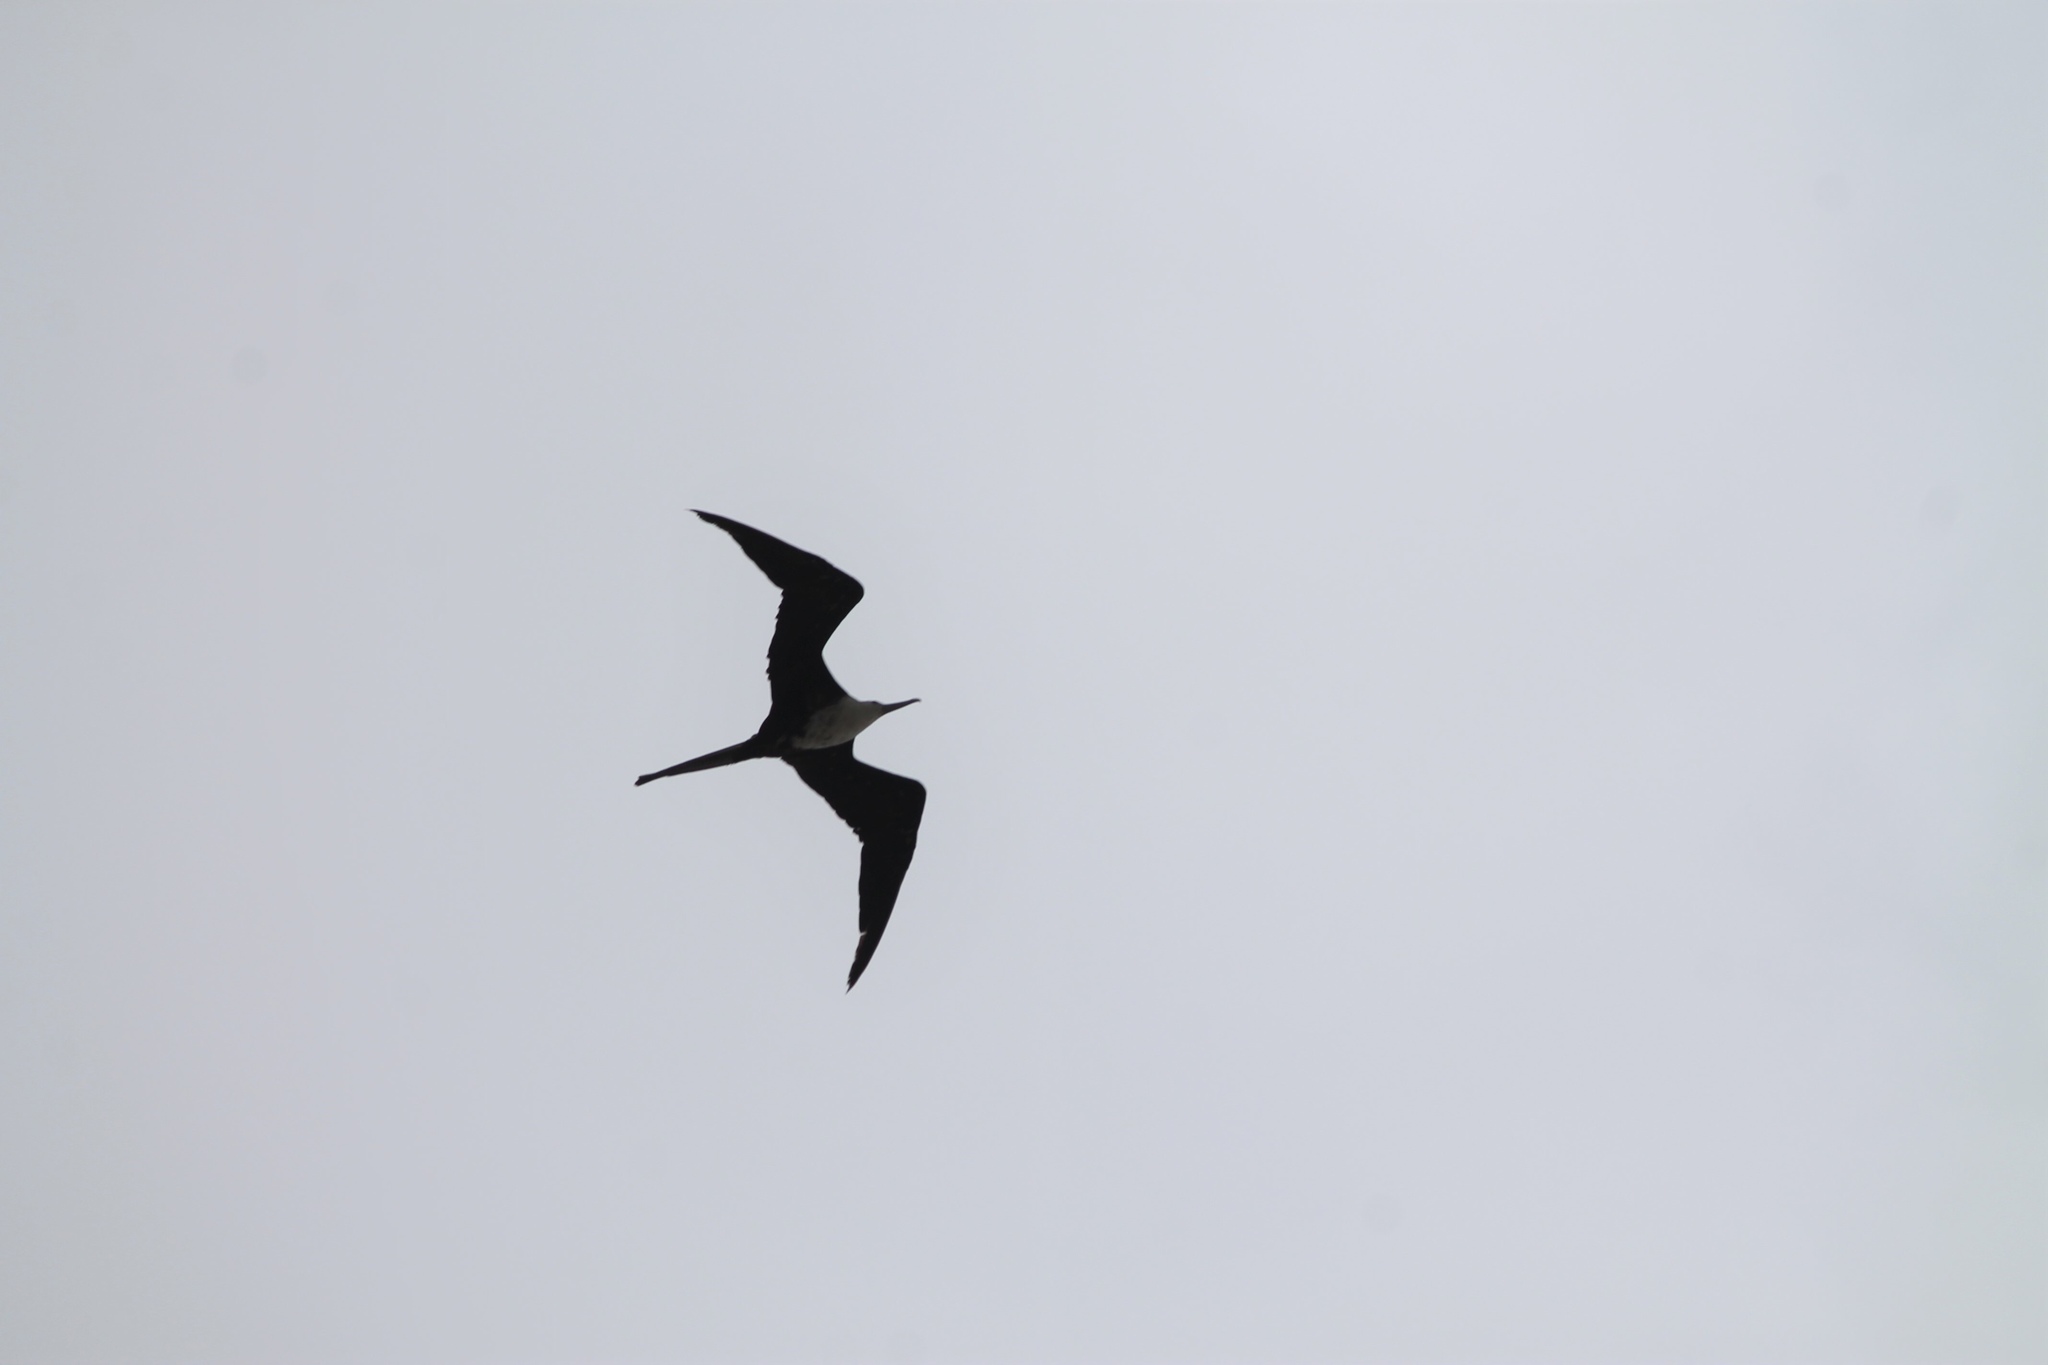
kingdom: Animalia
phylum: Chordata
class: Aves
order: Suliformes
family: Fregatidae
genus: Fregata
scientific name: Fregata magnificens
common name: Magnificent frigatebird
